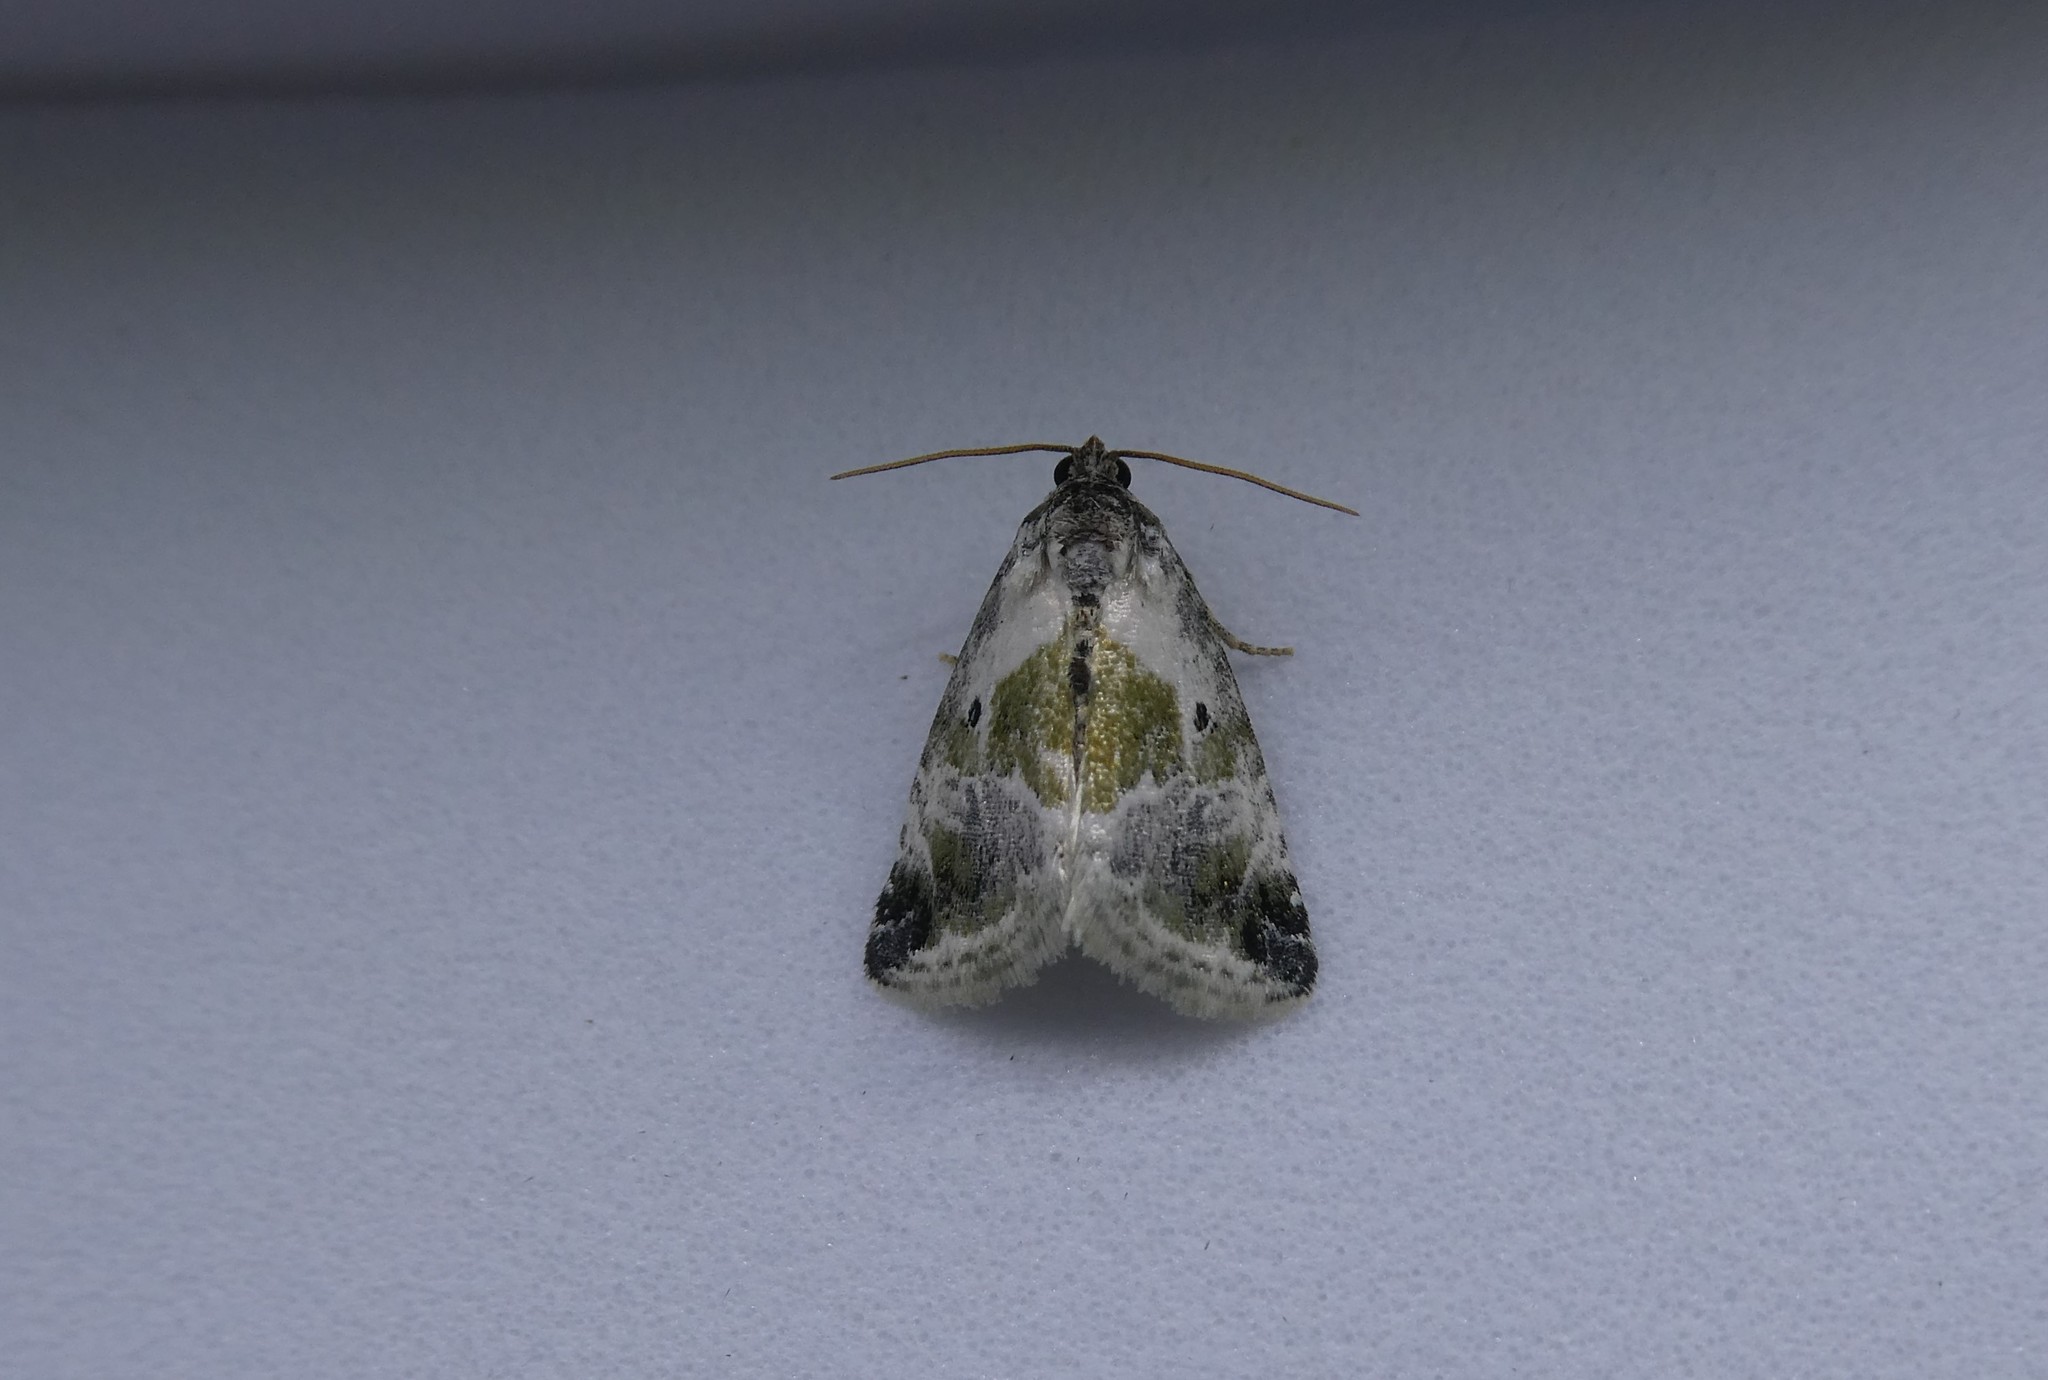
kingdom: Animalia
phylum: Arthropoda
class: Insecta
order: Lepidoptera
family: Noctuidae
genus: Maliattha
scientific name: Maliattha synochitis
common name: Black-dotted glyph
